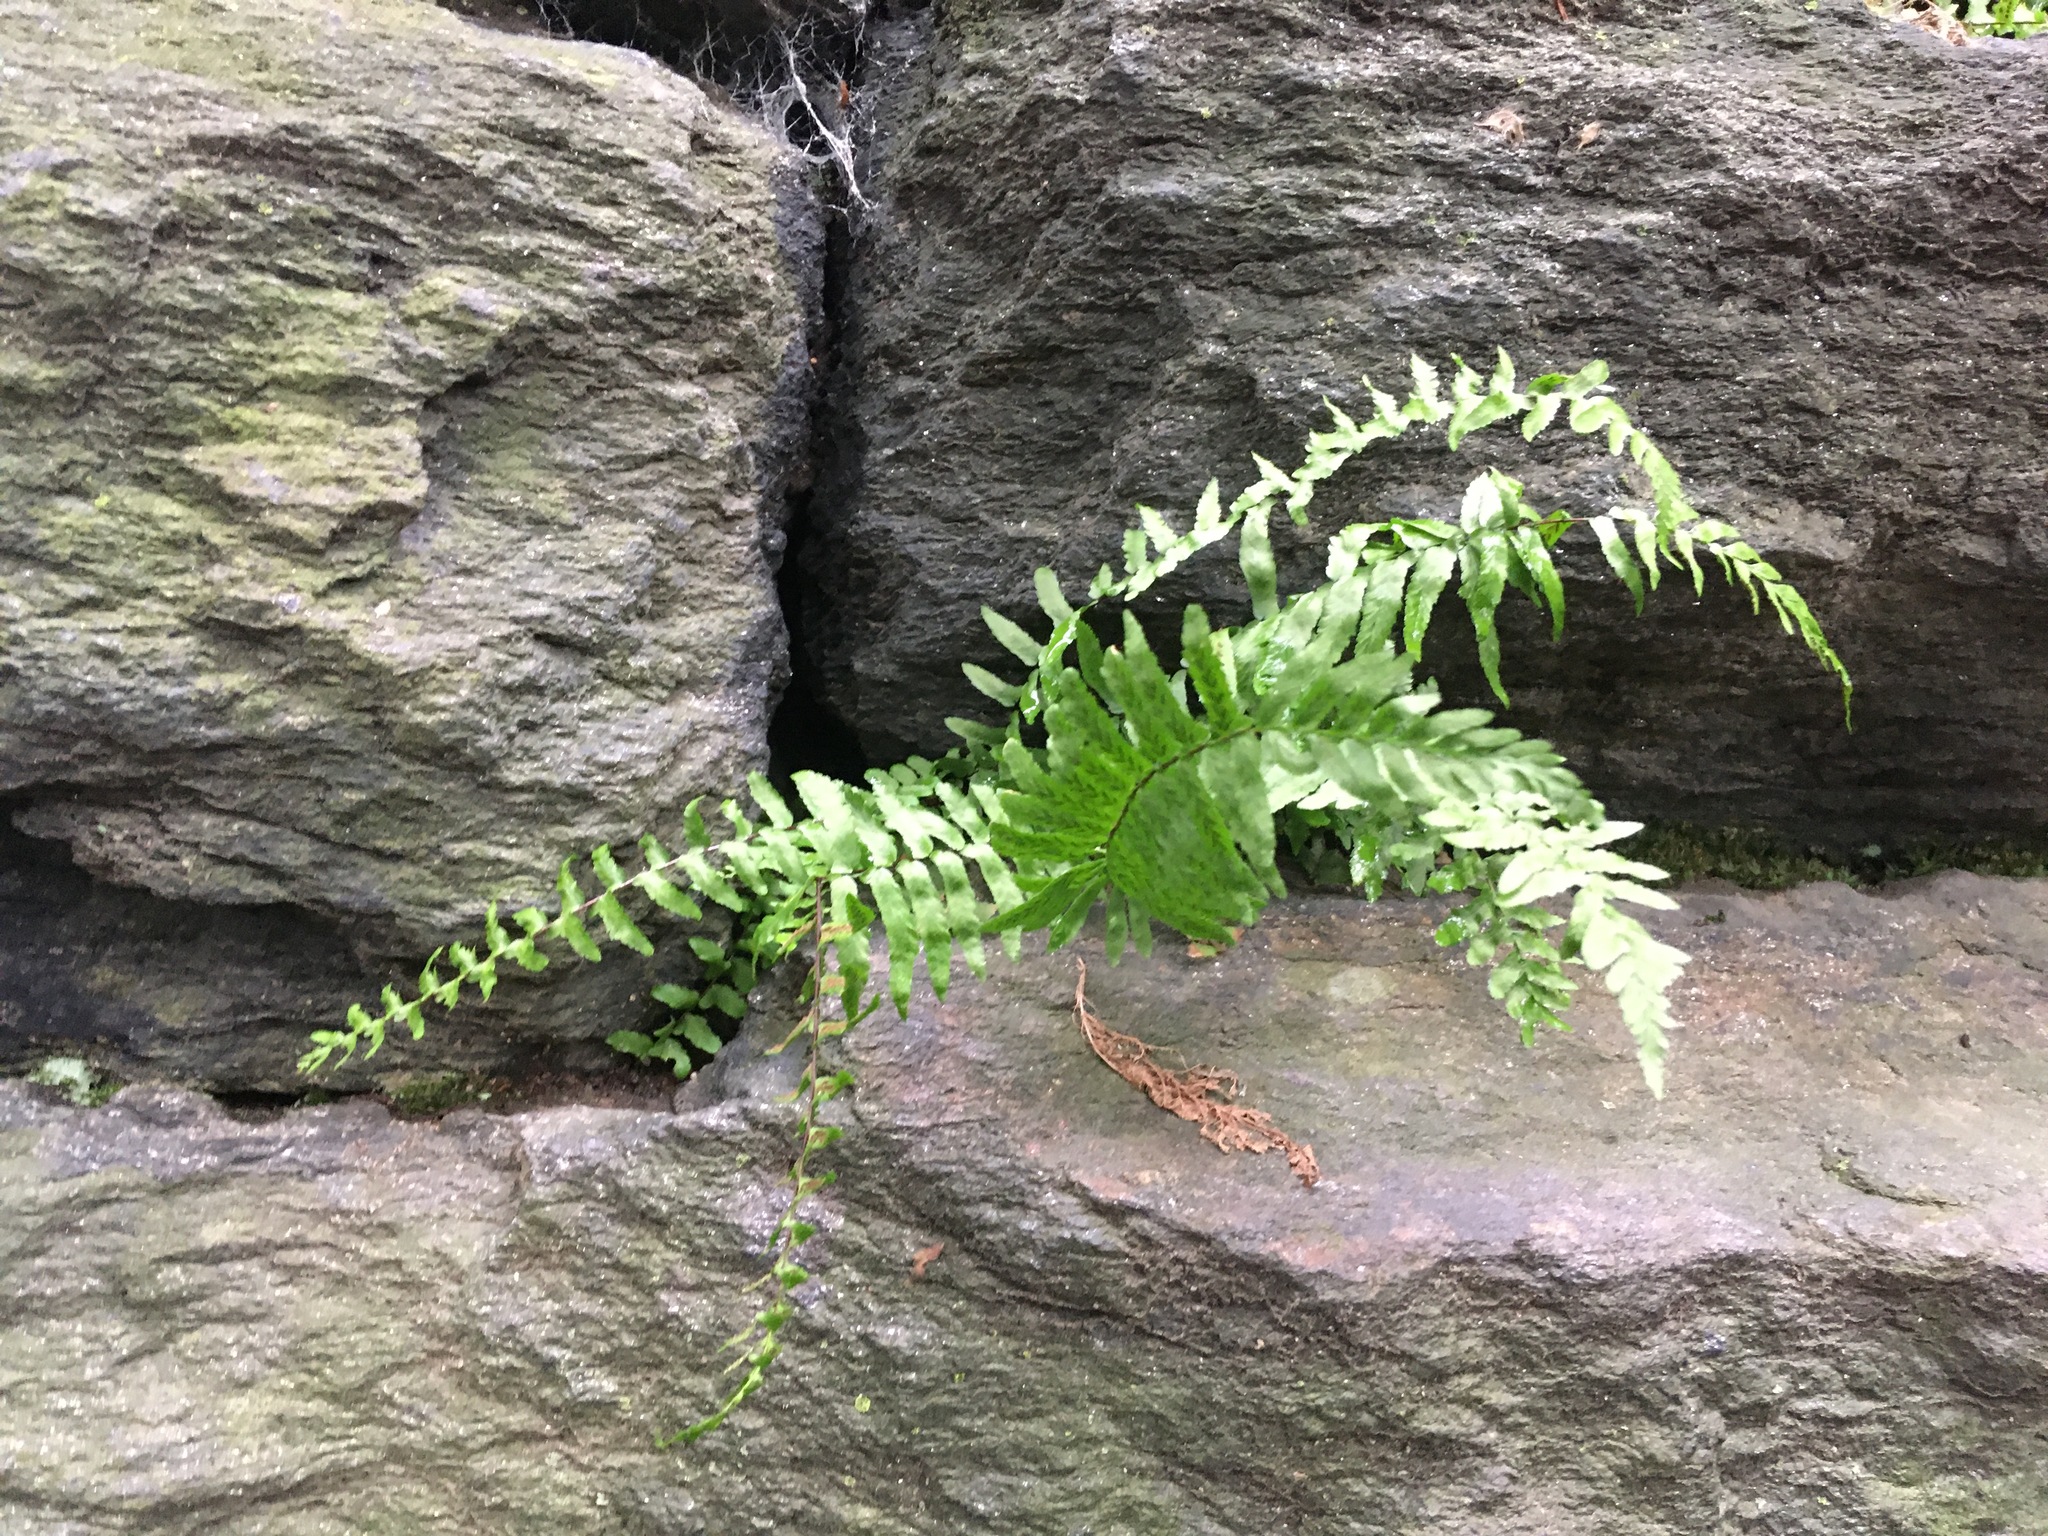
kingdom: Plantae
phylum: Tracheophyta
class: Polypodiopsida
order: Polypodiales
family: Aspleniaceae
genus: Asplenium
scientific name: Asplenium platyneuron
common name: Ebony spleenwort
